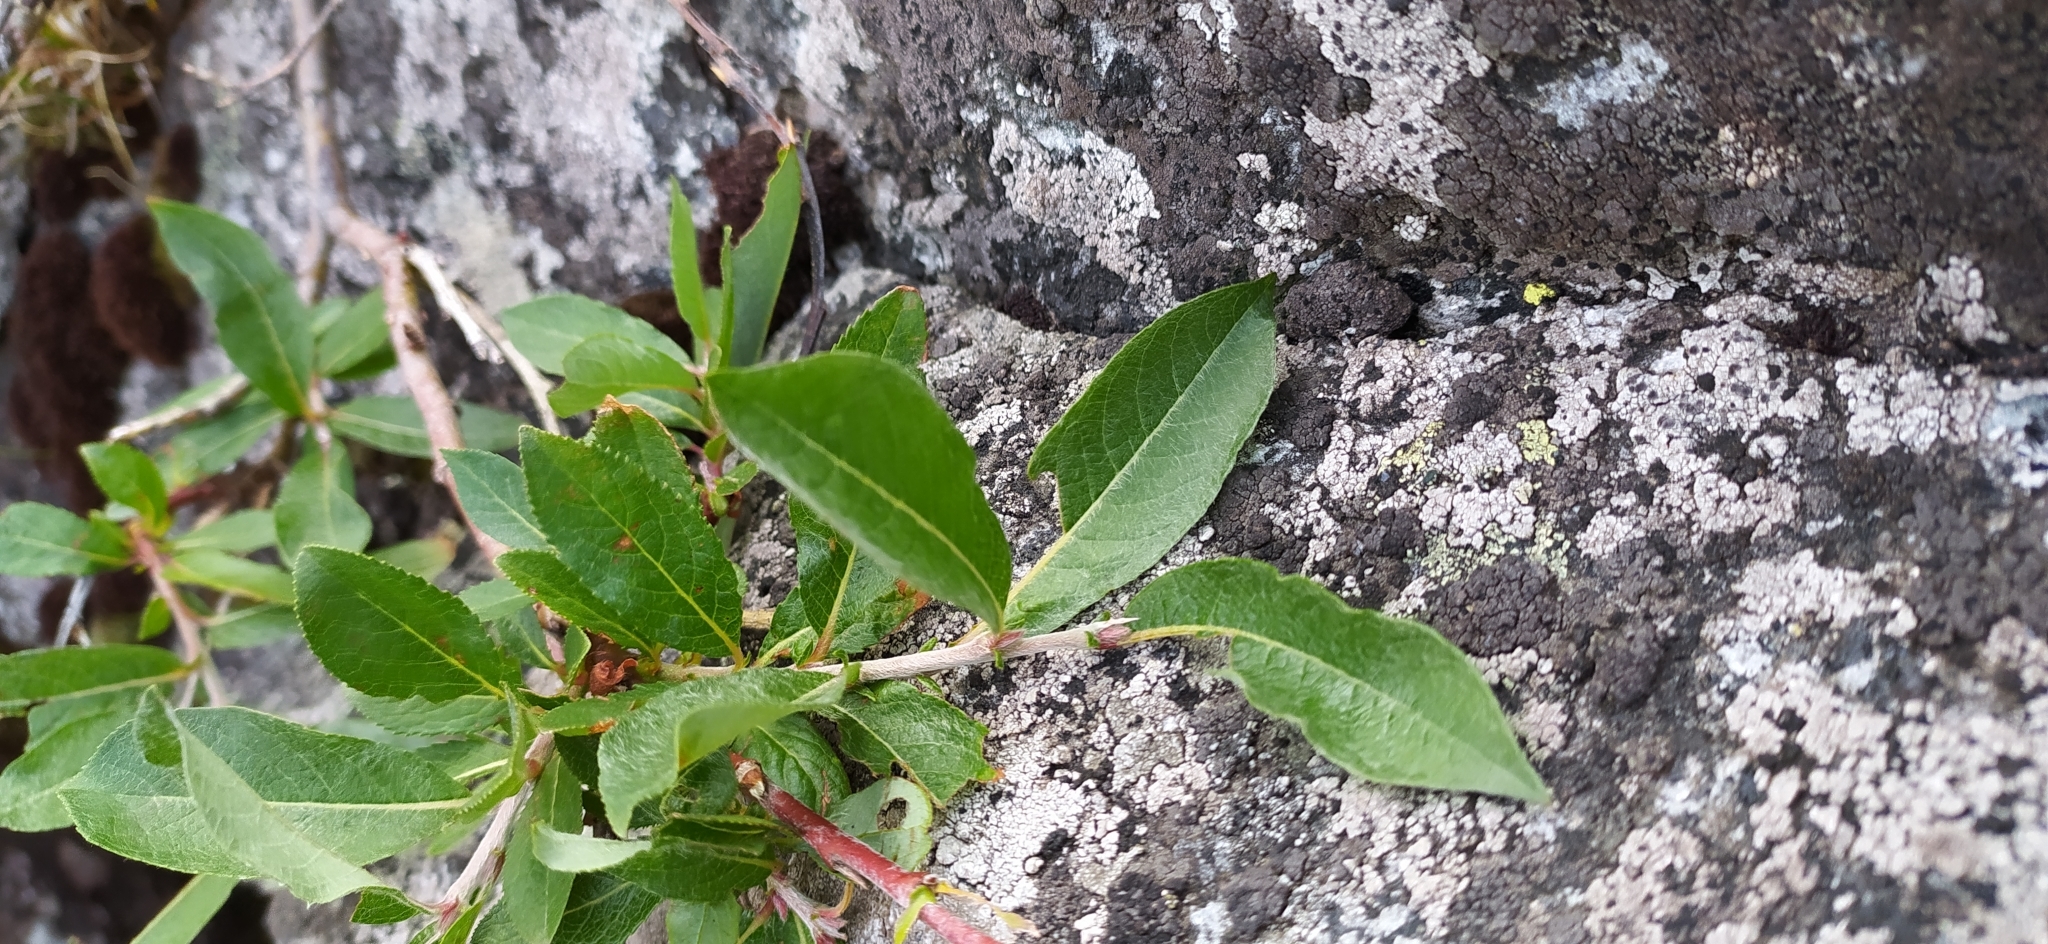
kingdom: Plantae
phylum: Tracheophyta
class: Magnoliopsida
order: Malpighiales
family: Salicaceae
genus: Salix
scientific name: Salix recurvigemmata
